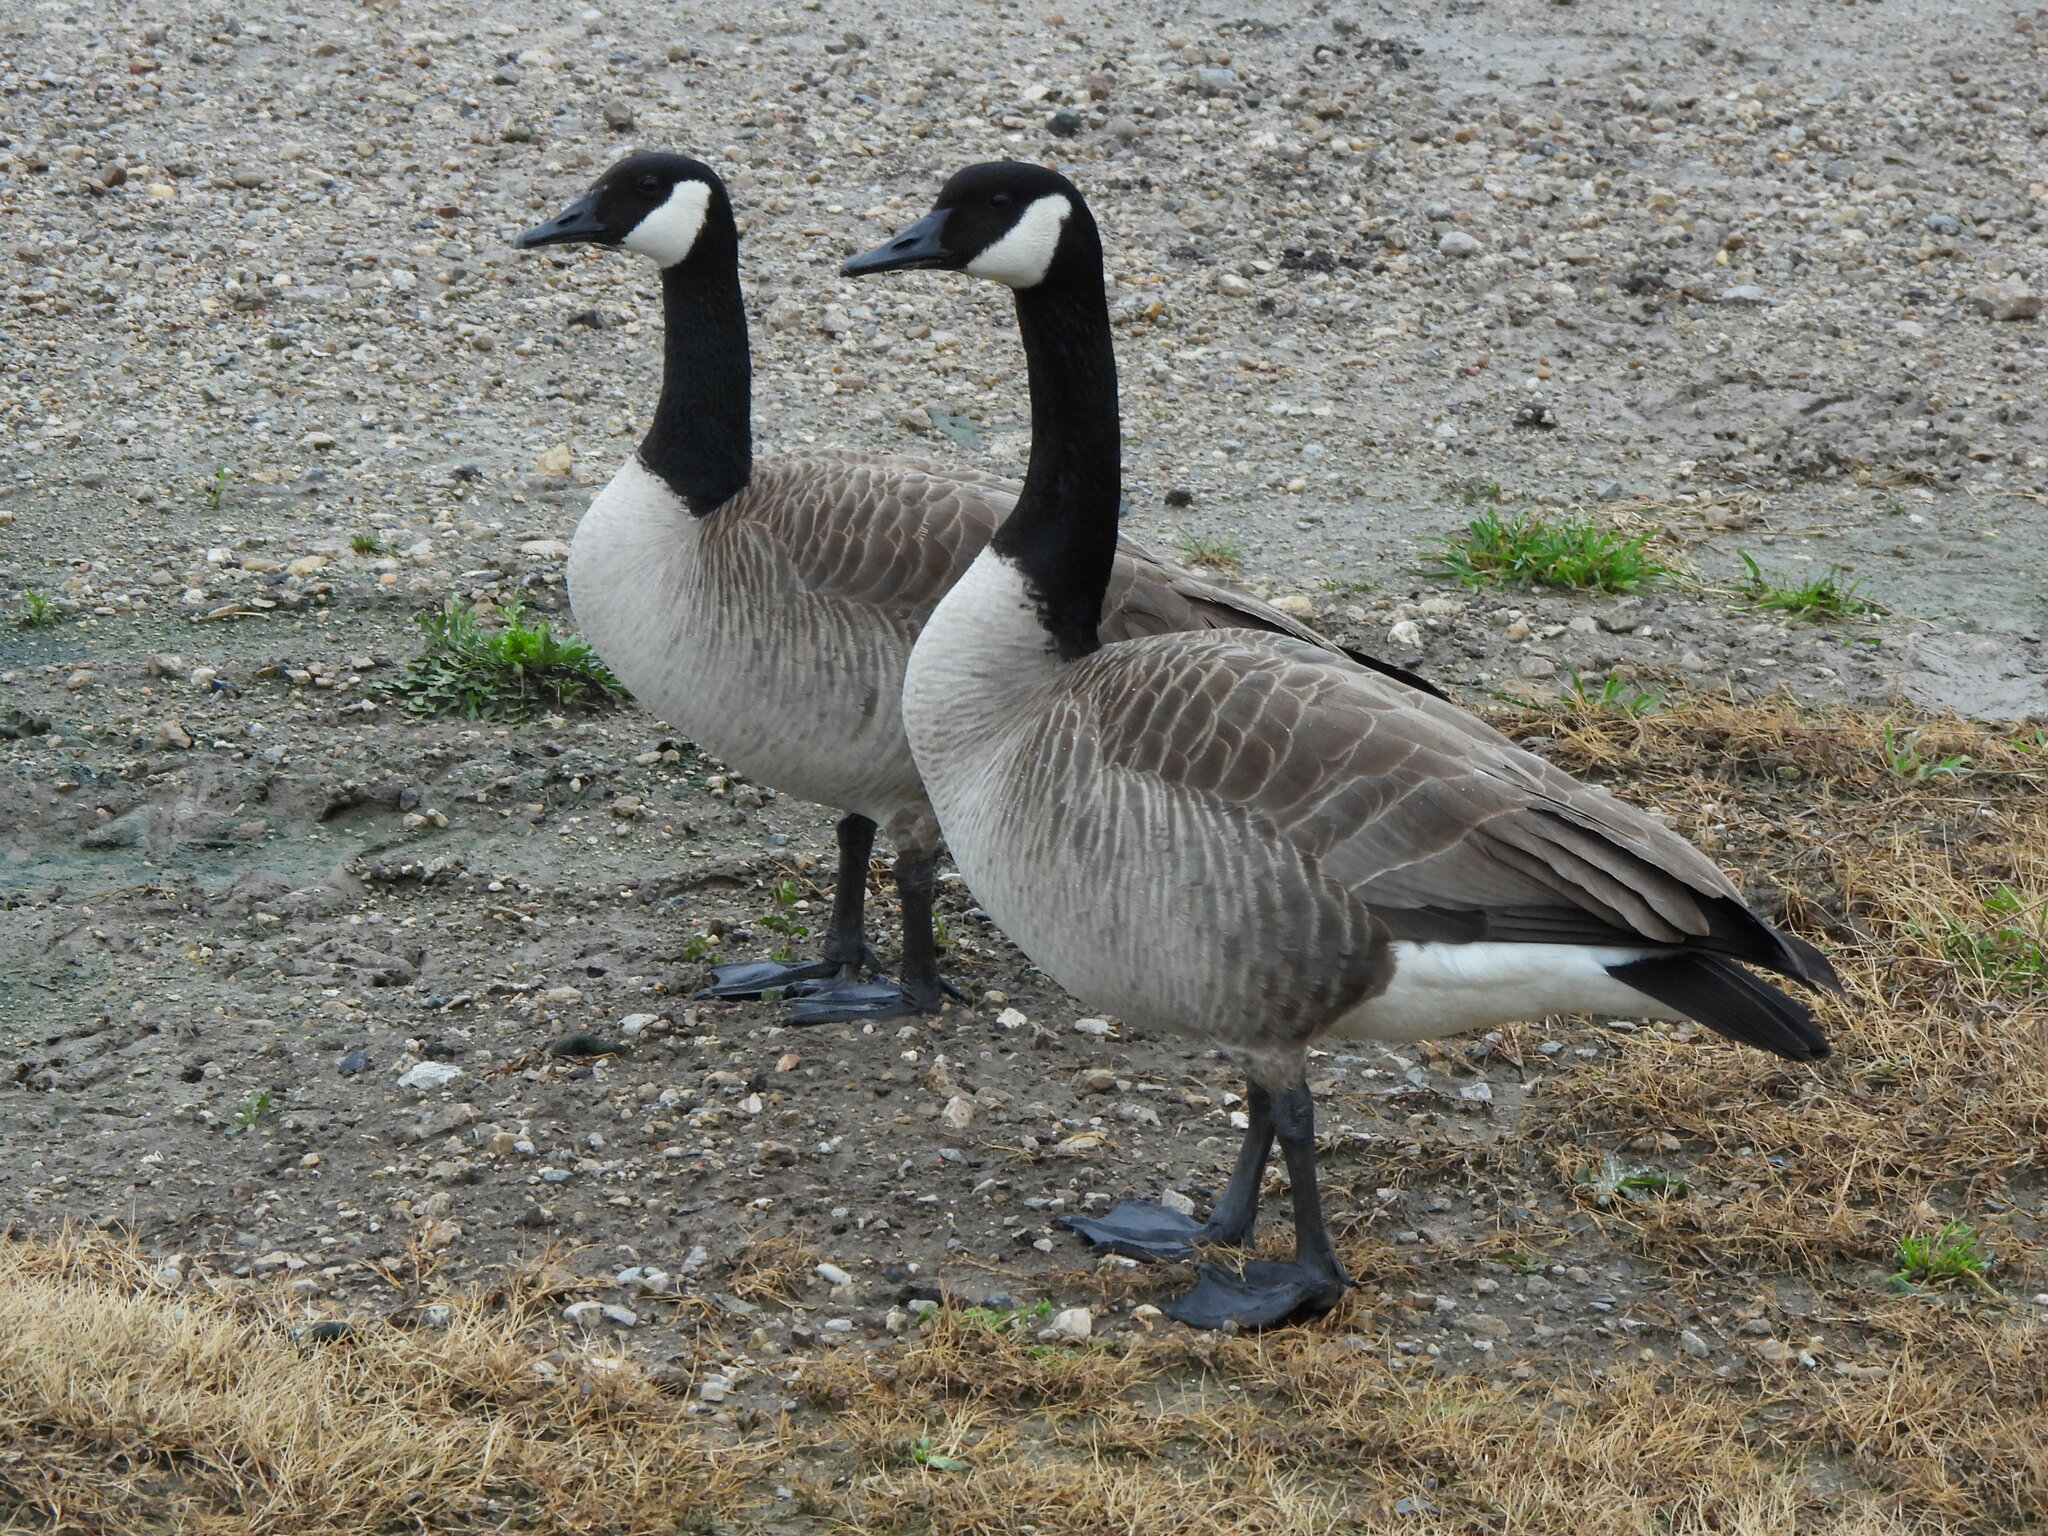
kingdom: Animalia
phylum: Chordata
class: Aves
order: Anseriformes
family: Anatidae
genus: Branta
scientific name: Branta canadensis
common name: Canada goose
